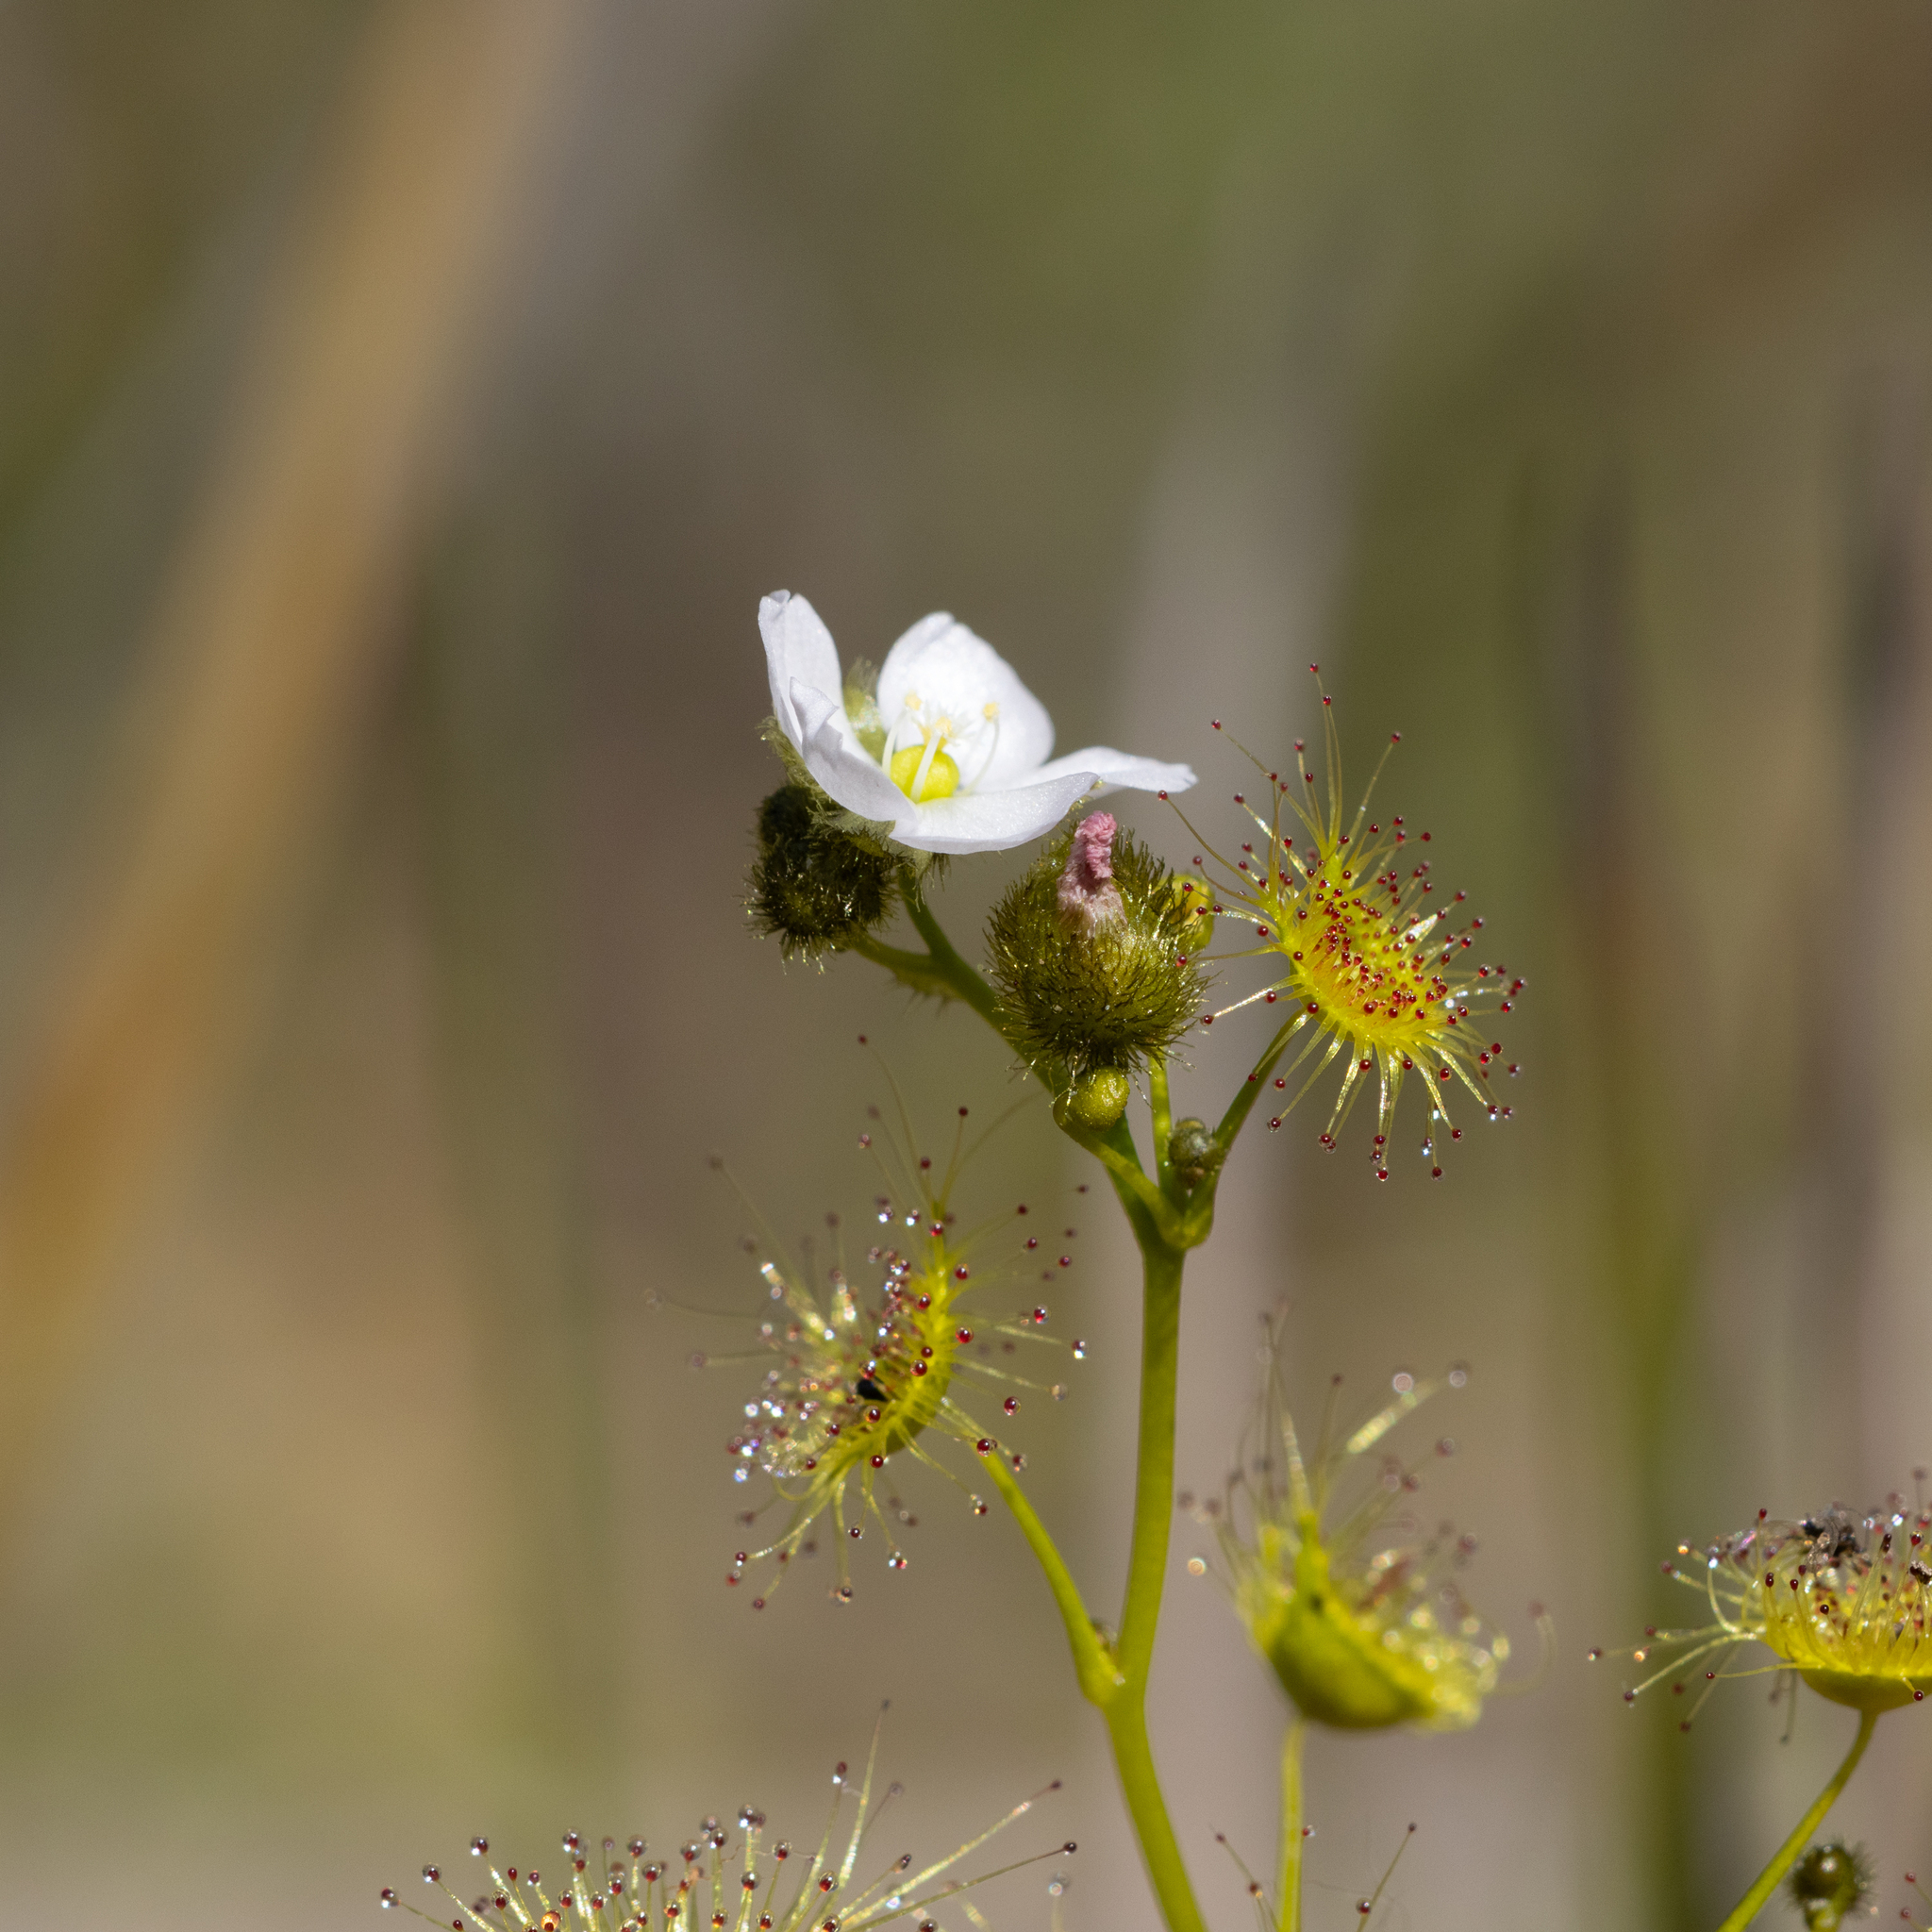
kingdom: Plantae
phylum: Tracheophyta
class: Magnoliopsida
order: Caryophyllales
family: Droseraceae
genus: Drosera
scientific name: Drosera gunniana
